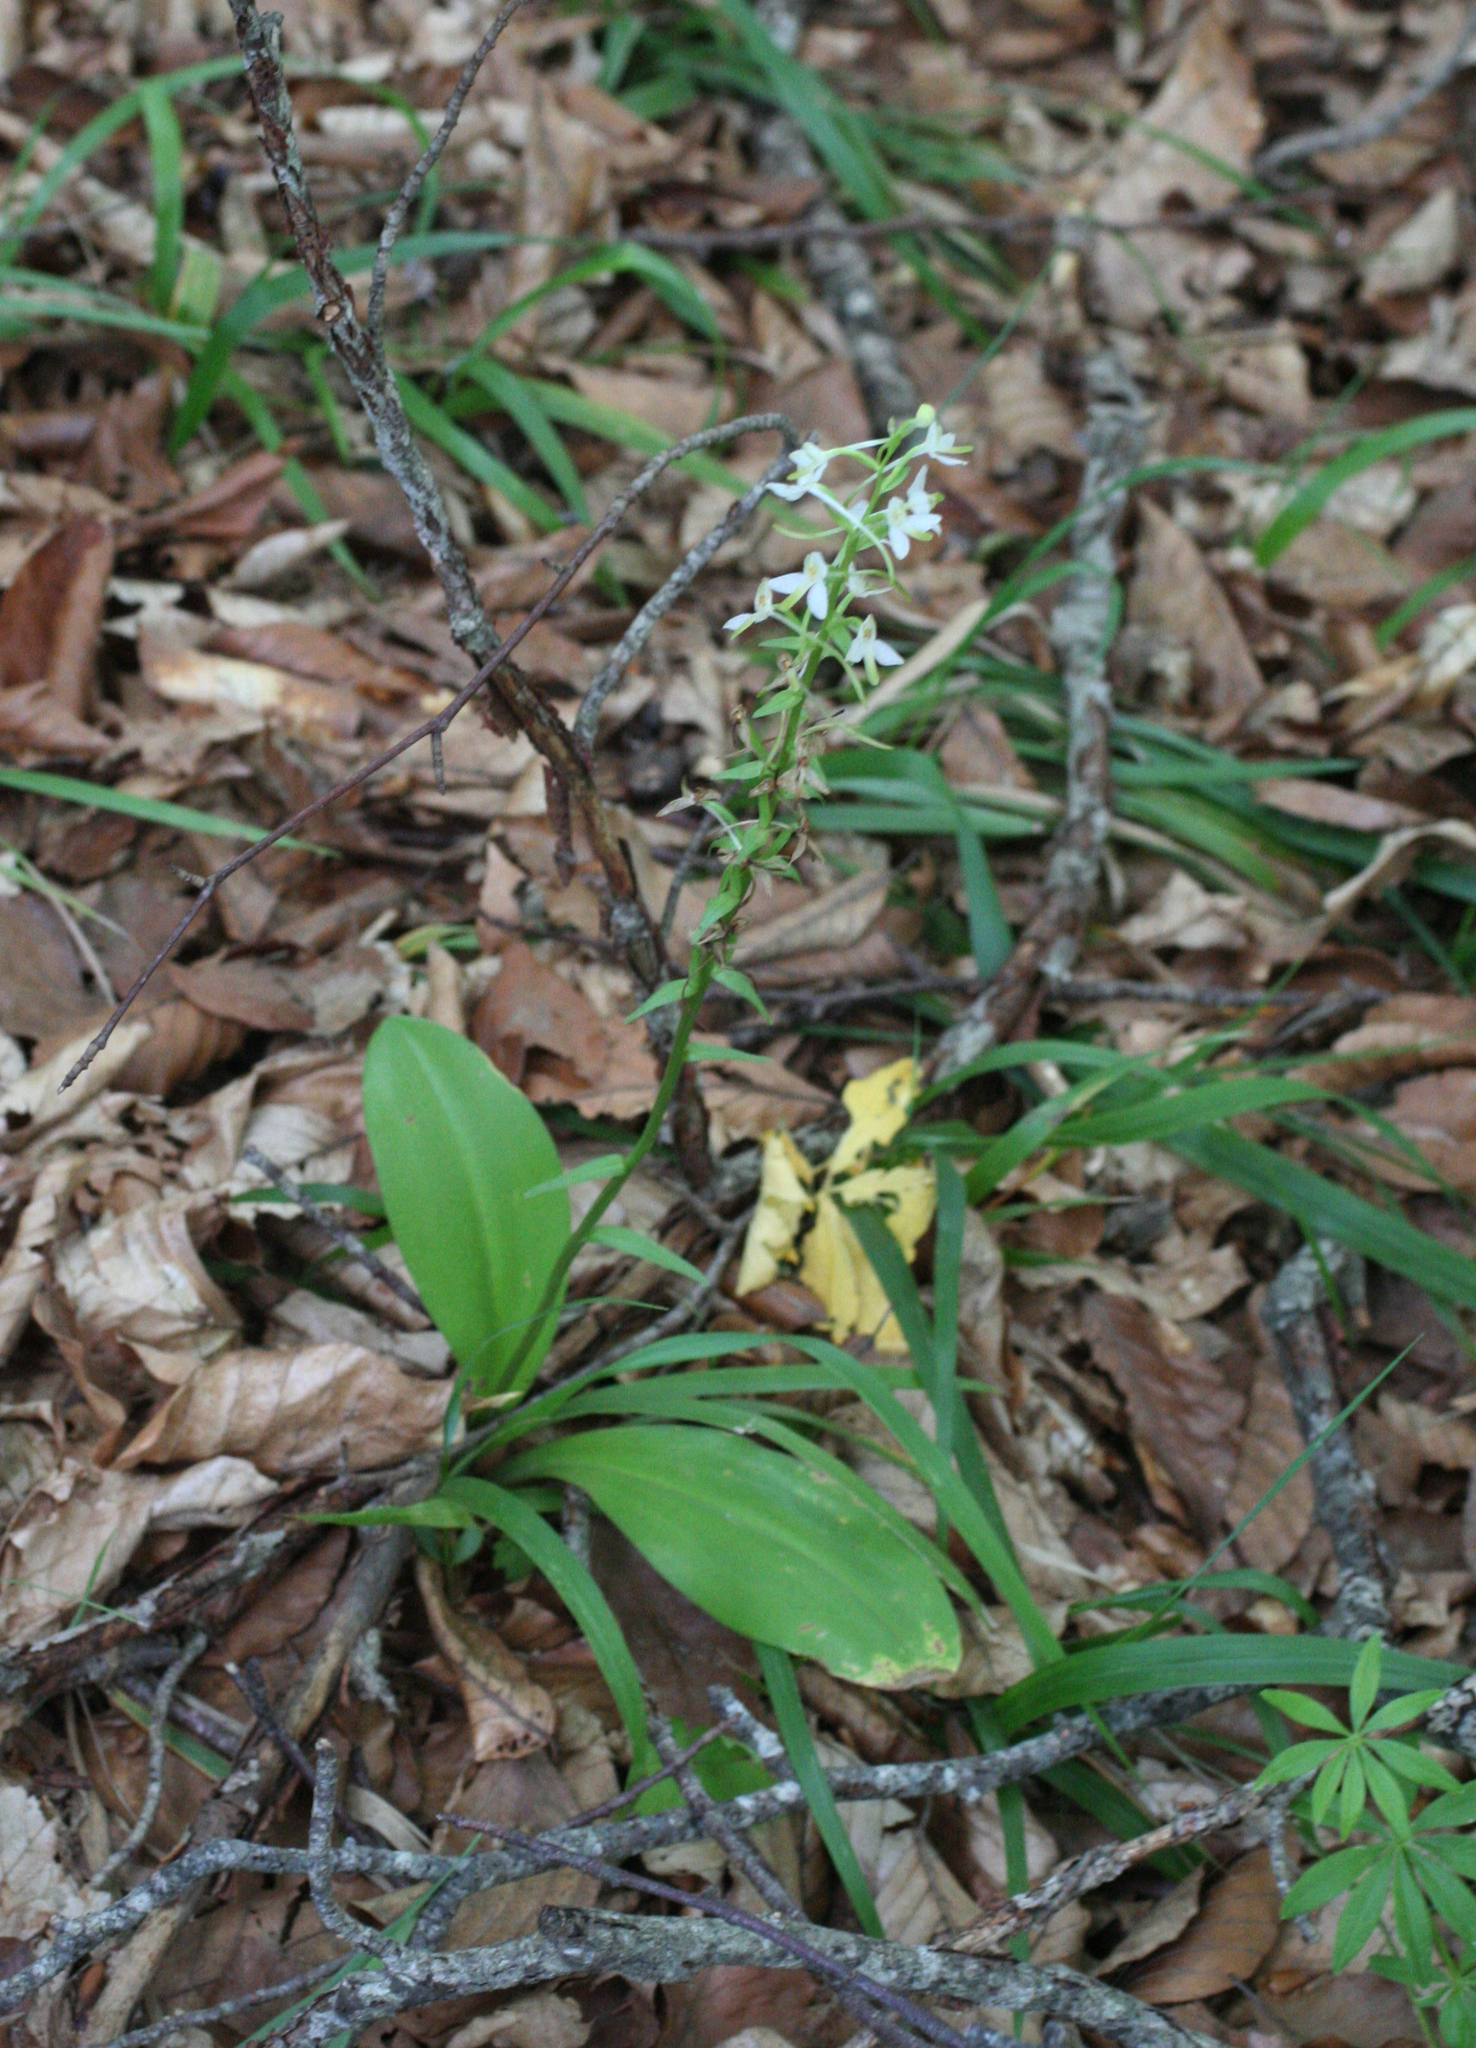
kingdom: Plantae
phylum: Tracheophyta
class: Liliopsida
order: Asparagales
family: Orchidaceae
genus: Platanthera
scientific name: Platanthera bifolia
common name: Lesser butterfly-orchid
